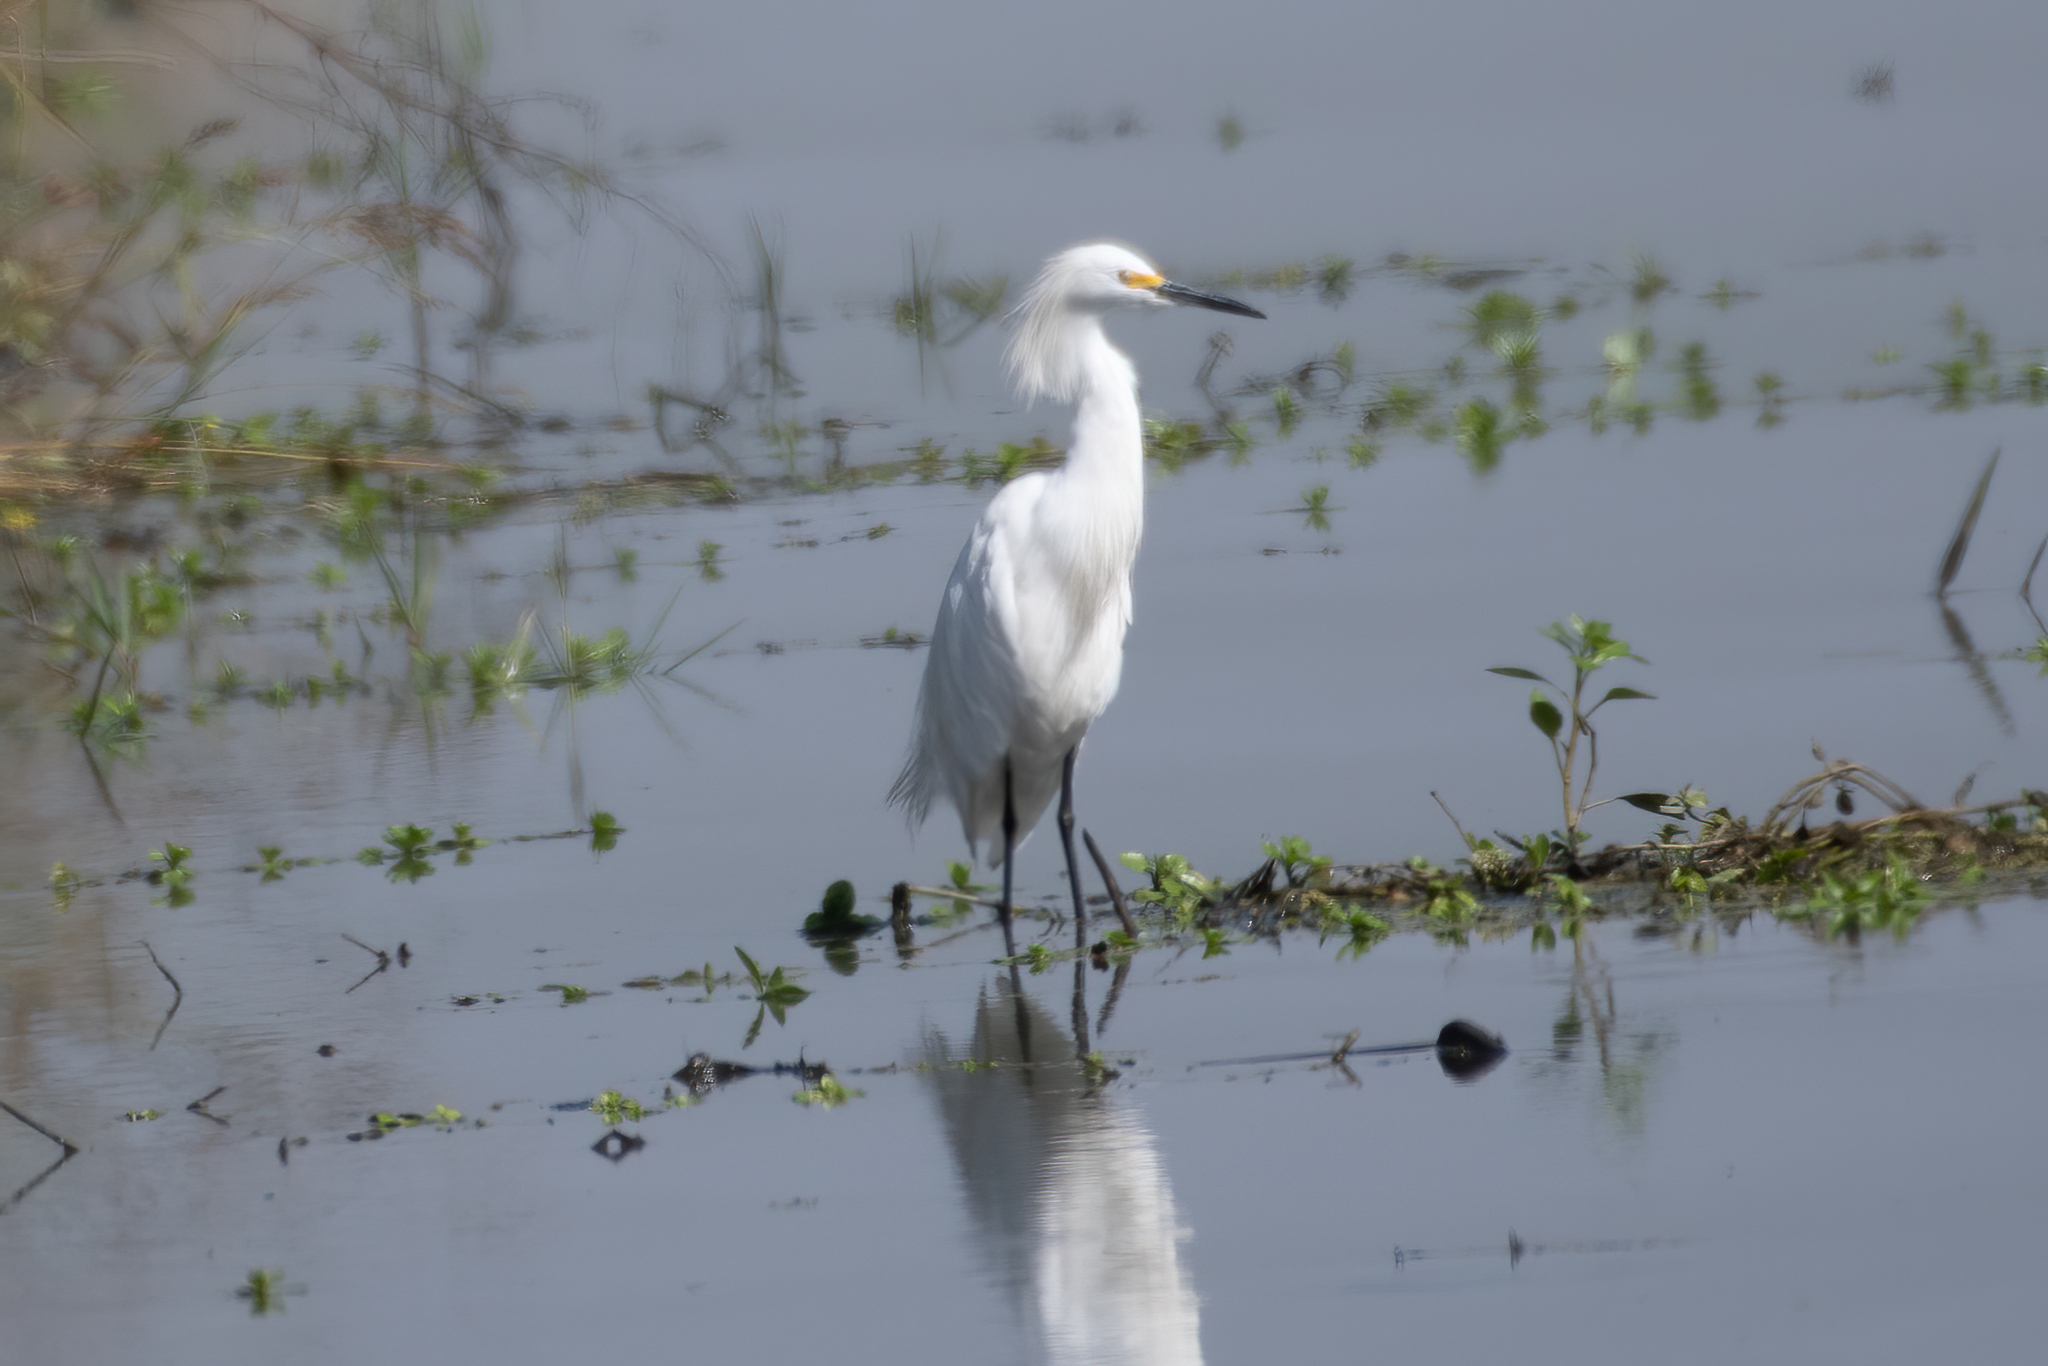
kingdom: Animalia
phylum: Chordata
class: Aves
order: Pelecaniformes
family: Ardeidae
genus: Egretta
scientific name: Egretta thula
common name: Snowy egret
